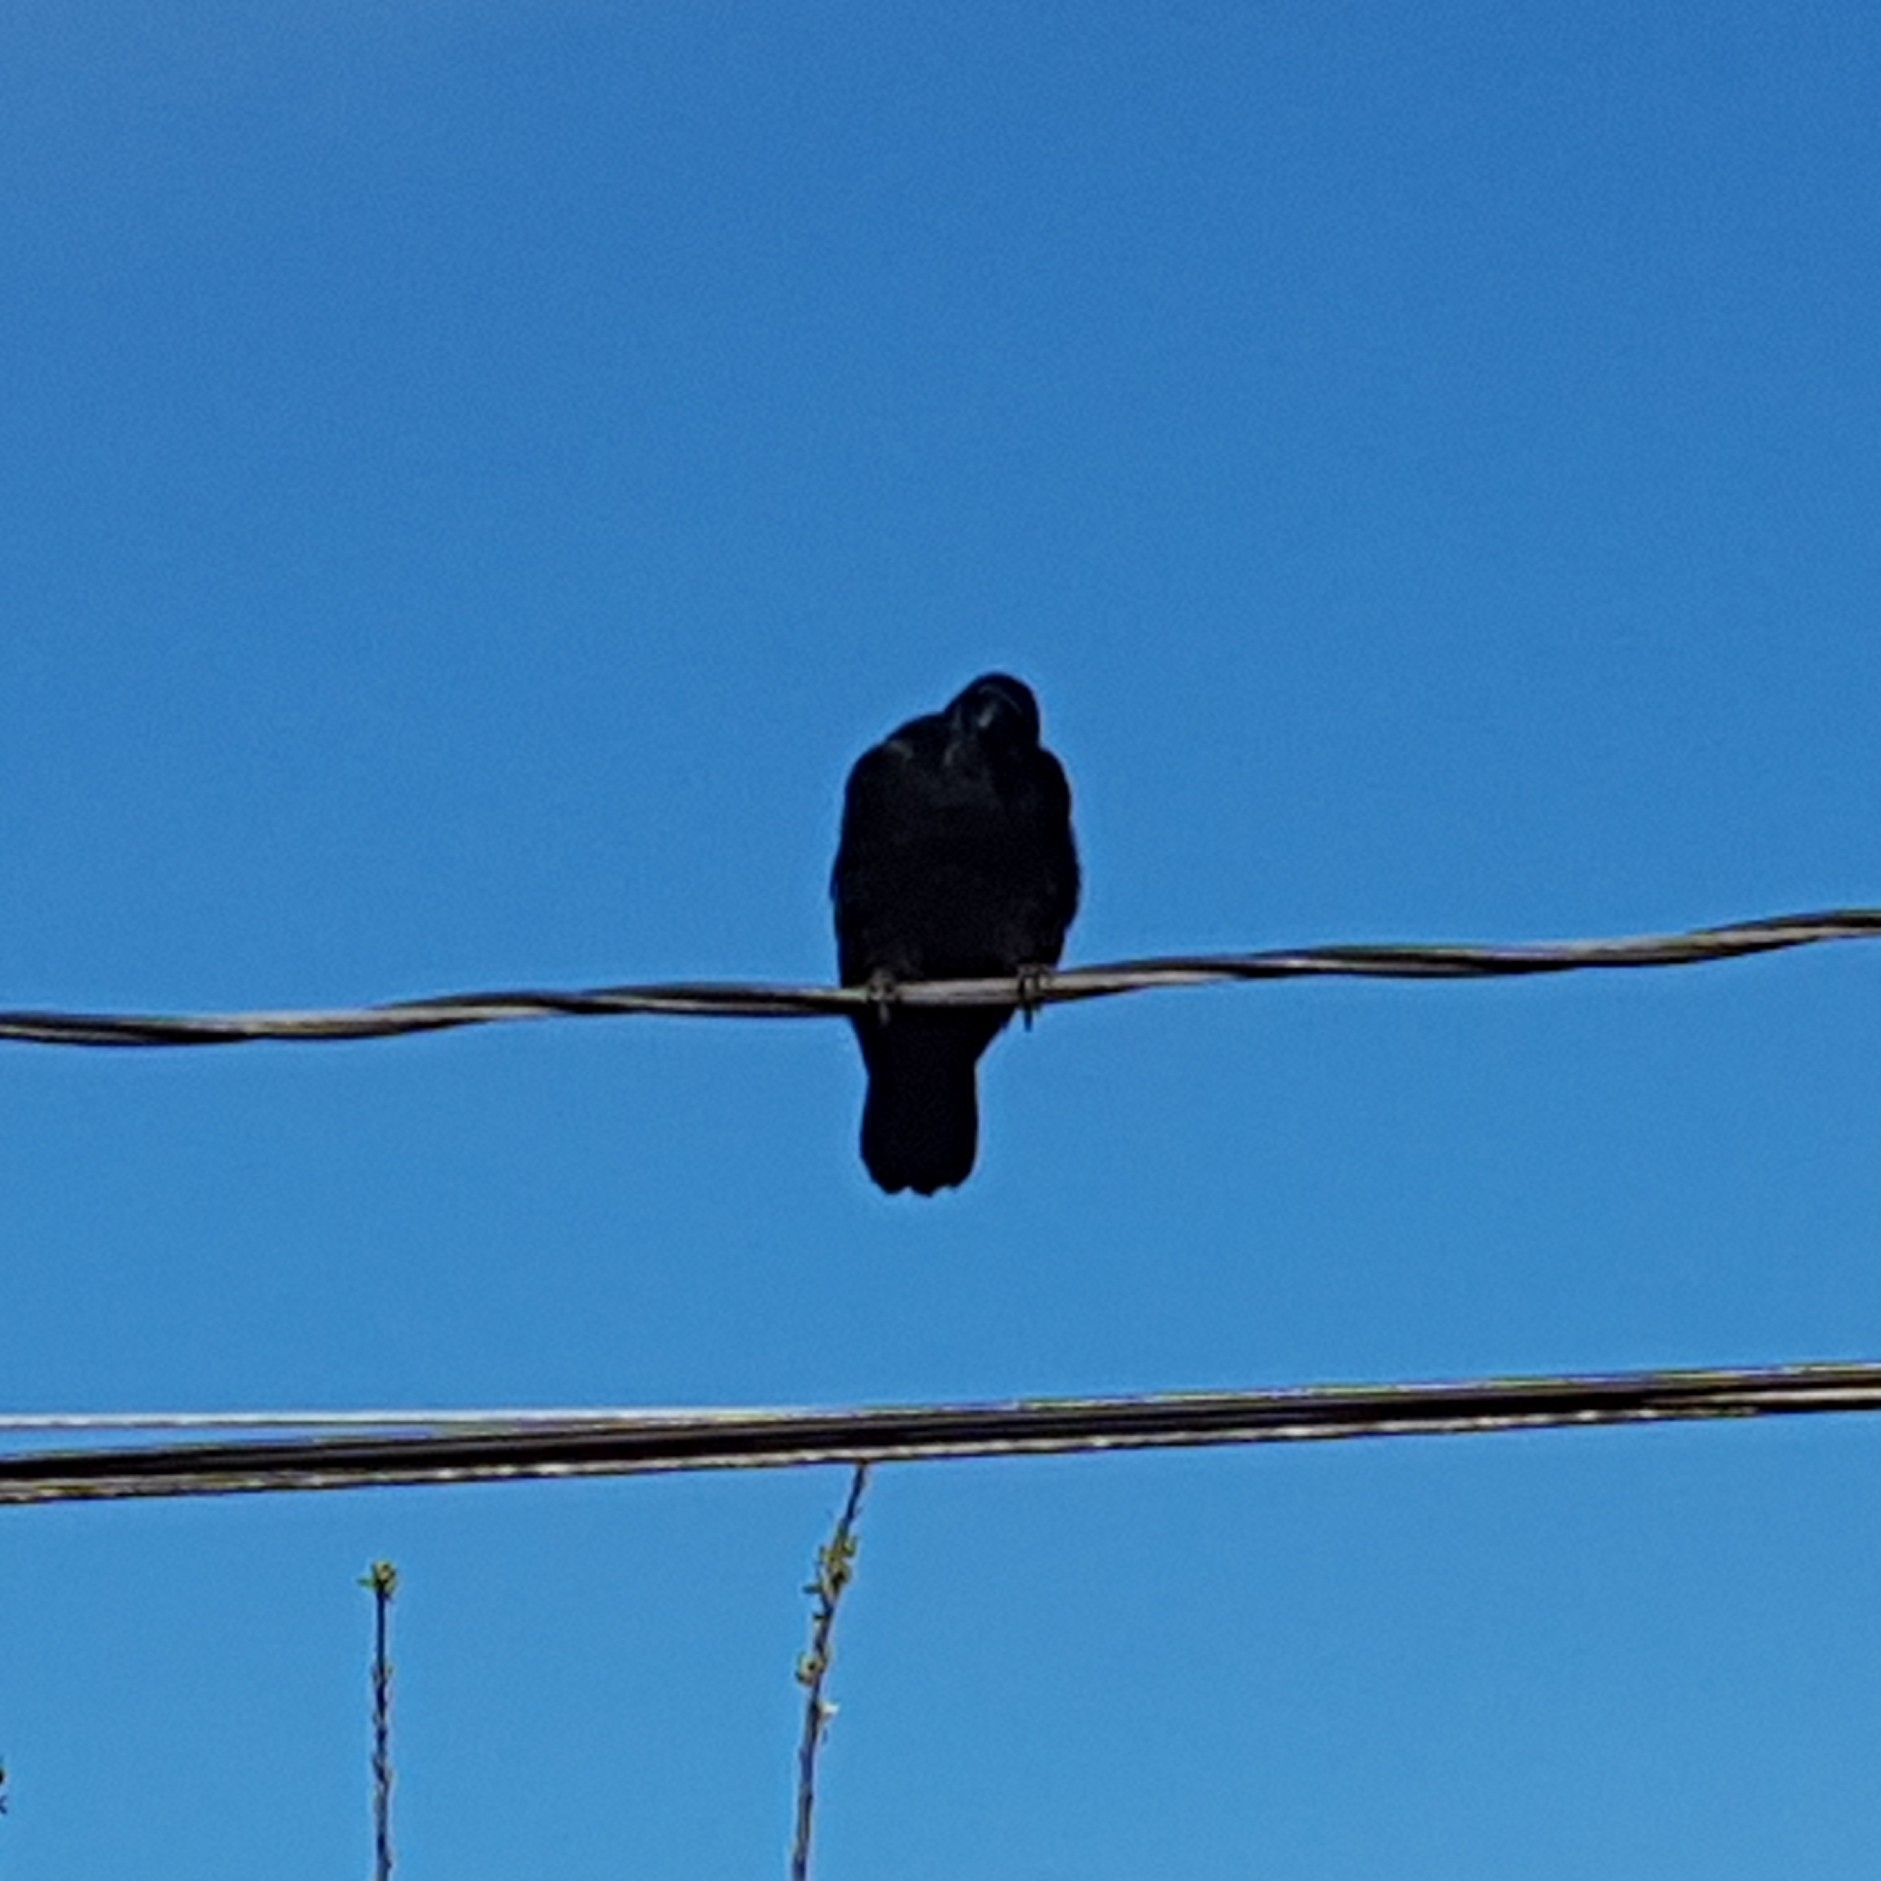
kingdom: Animalia
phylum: Chordata
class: Aves
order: Passeriformes
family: Corvidae
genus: Corvus
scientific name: Corvus brachyrhynchos
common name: American crow
